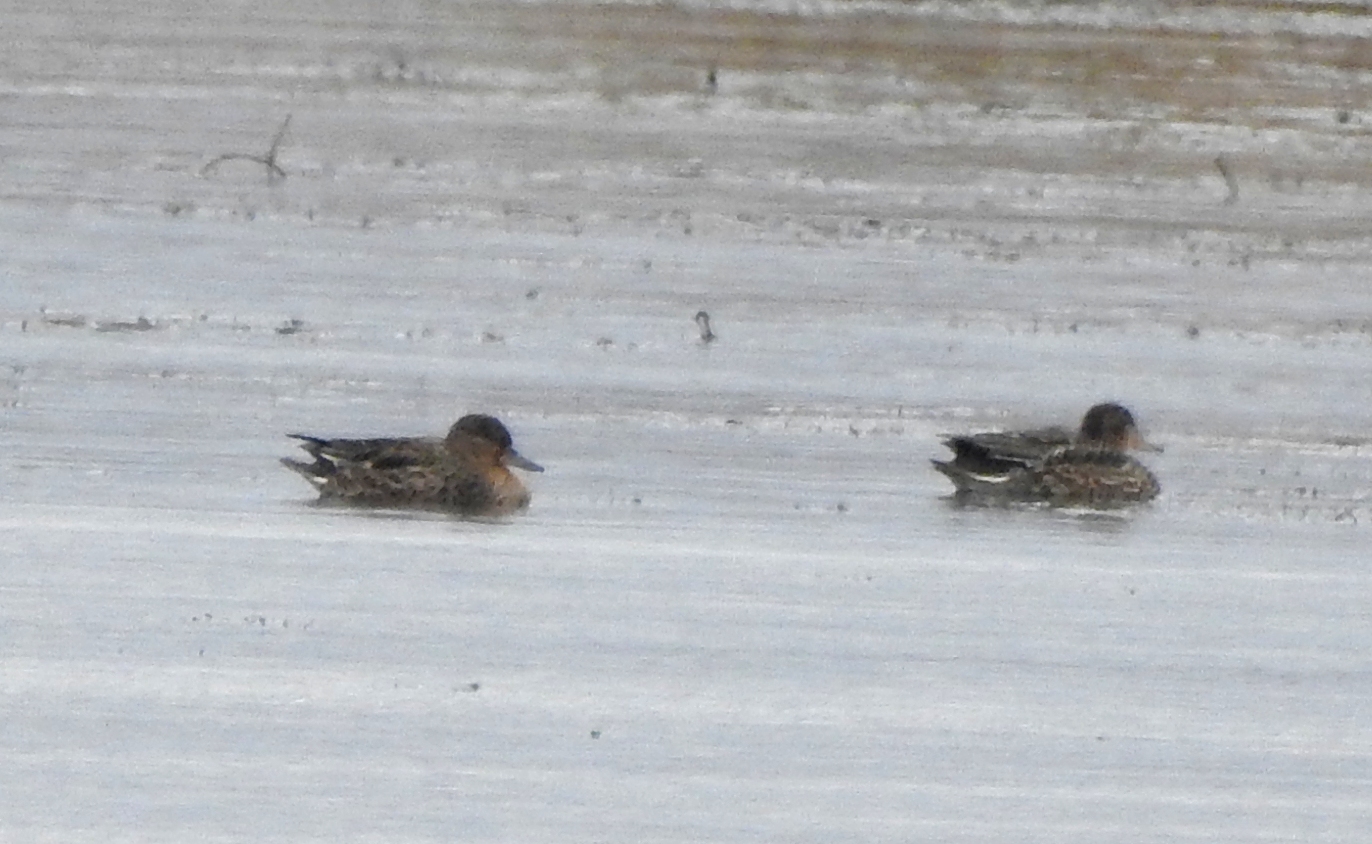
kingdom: Animalia
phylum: Chordata
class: Aves
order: Anseriformes
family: Anatidae
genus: Anas
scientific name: Anas crecca
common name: Eurasian teal
